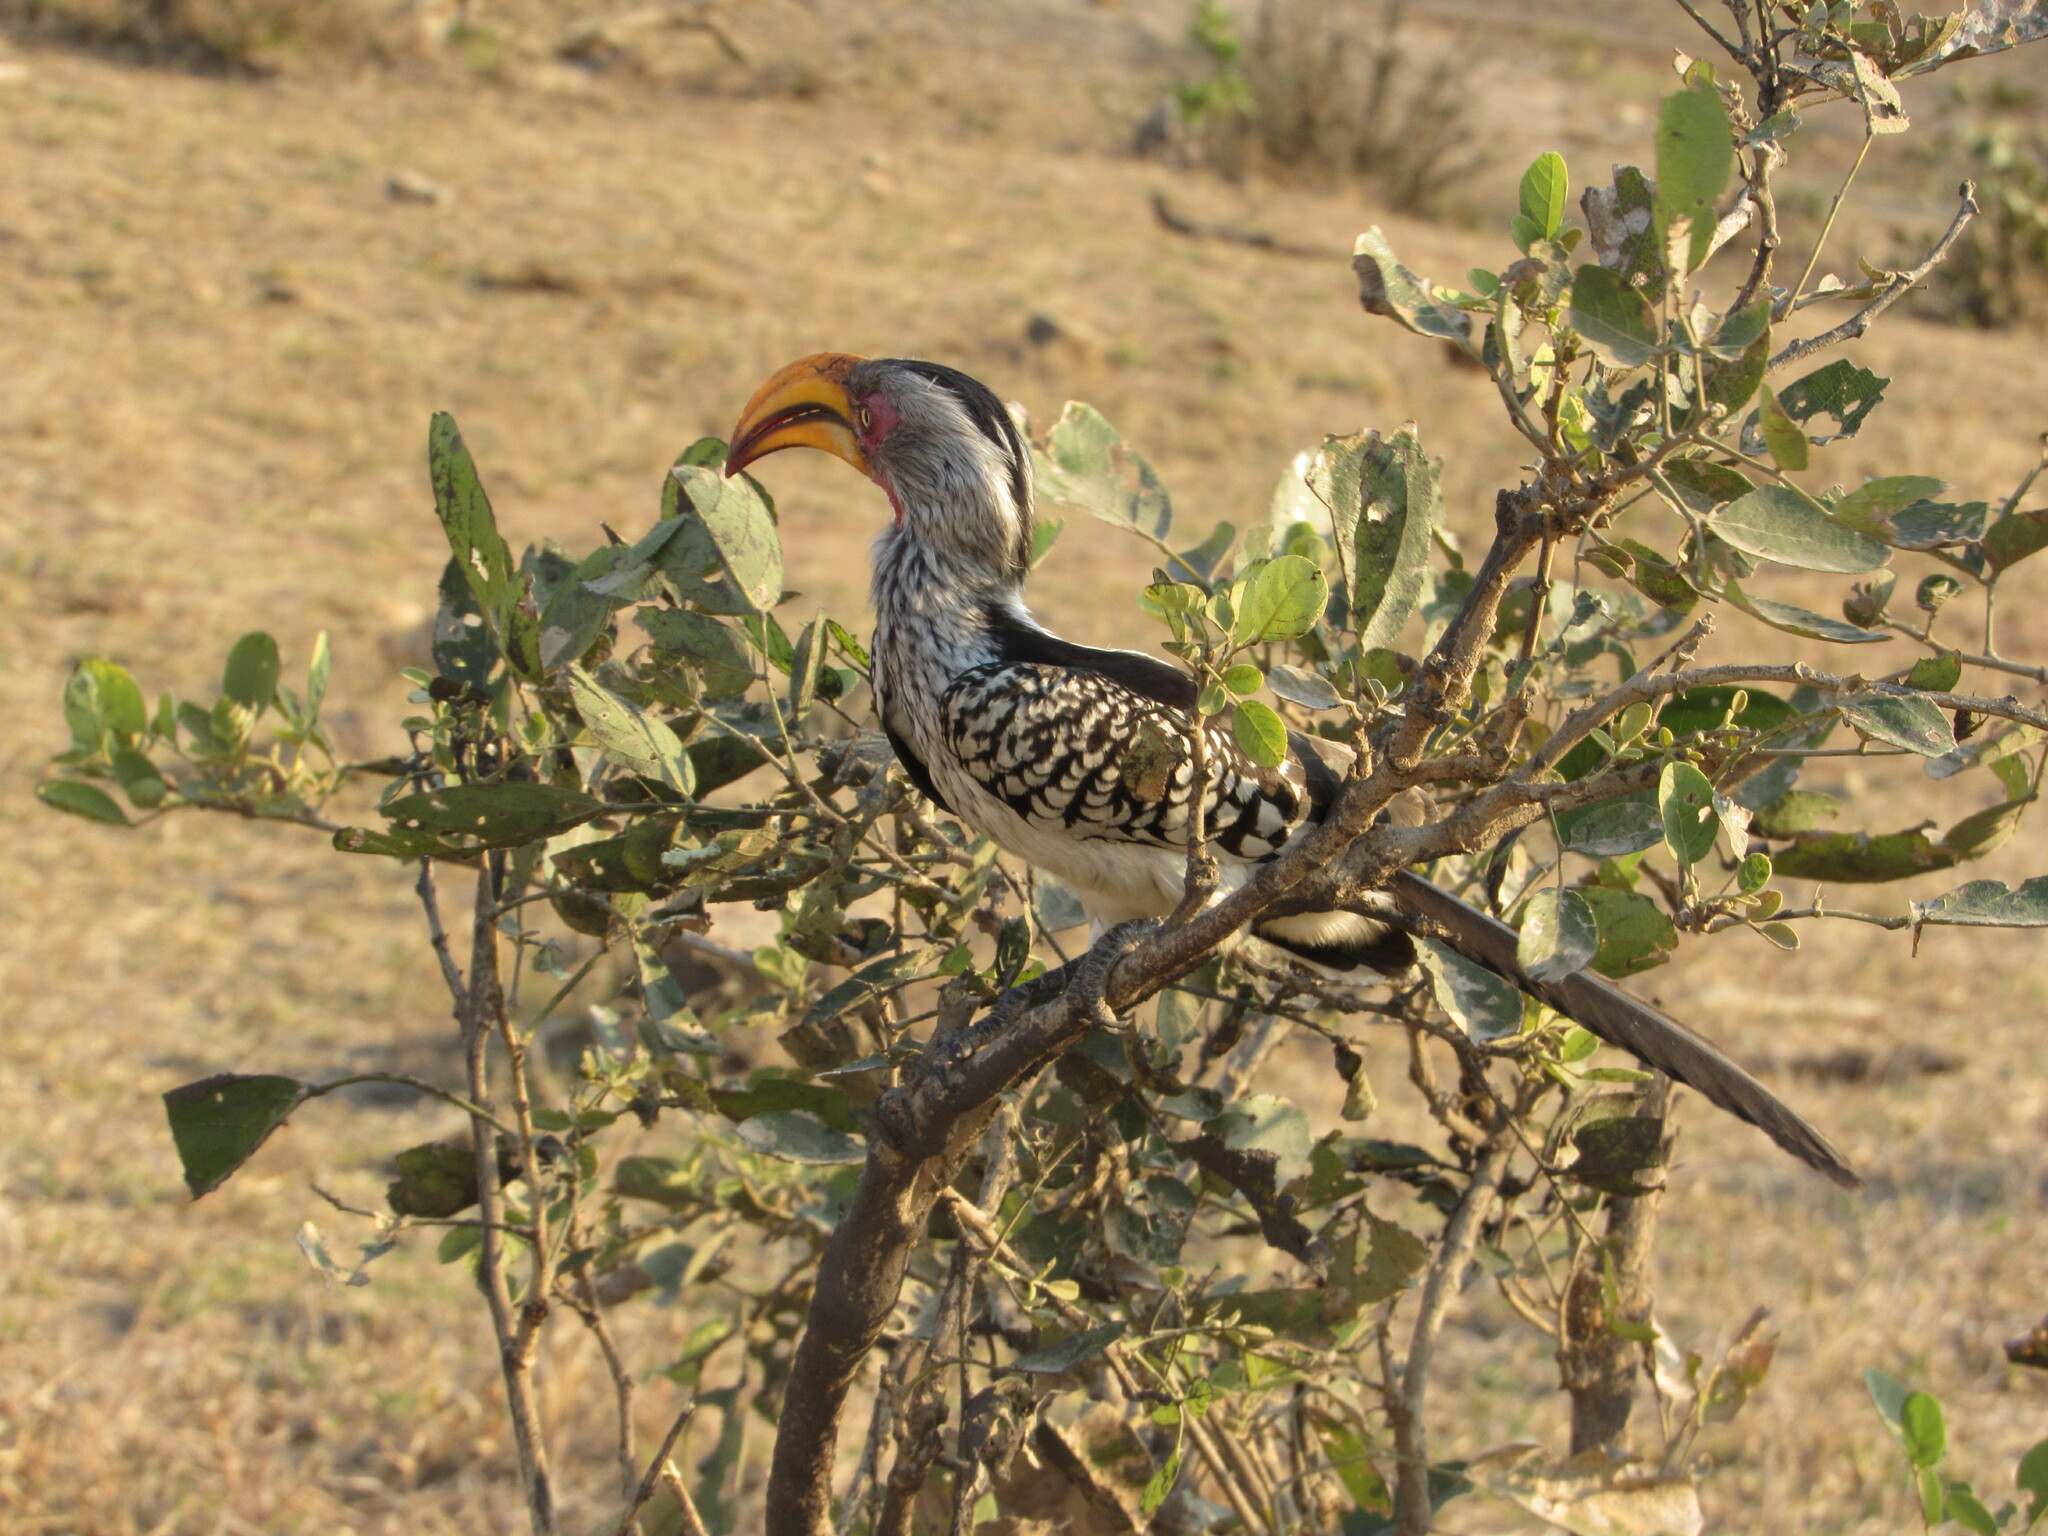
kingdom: Animalia
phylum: Chordata
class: Aves
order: Bucerotiformes
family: Bucerotidae
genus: Tockus
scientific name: Tockus leucomelas
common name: Southern yellow-billed hornbill
